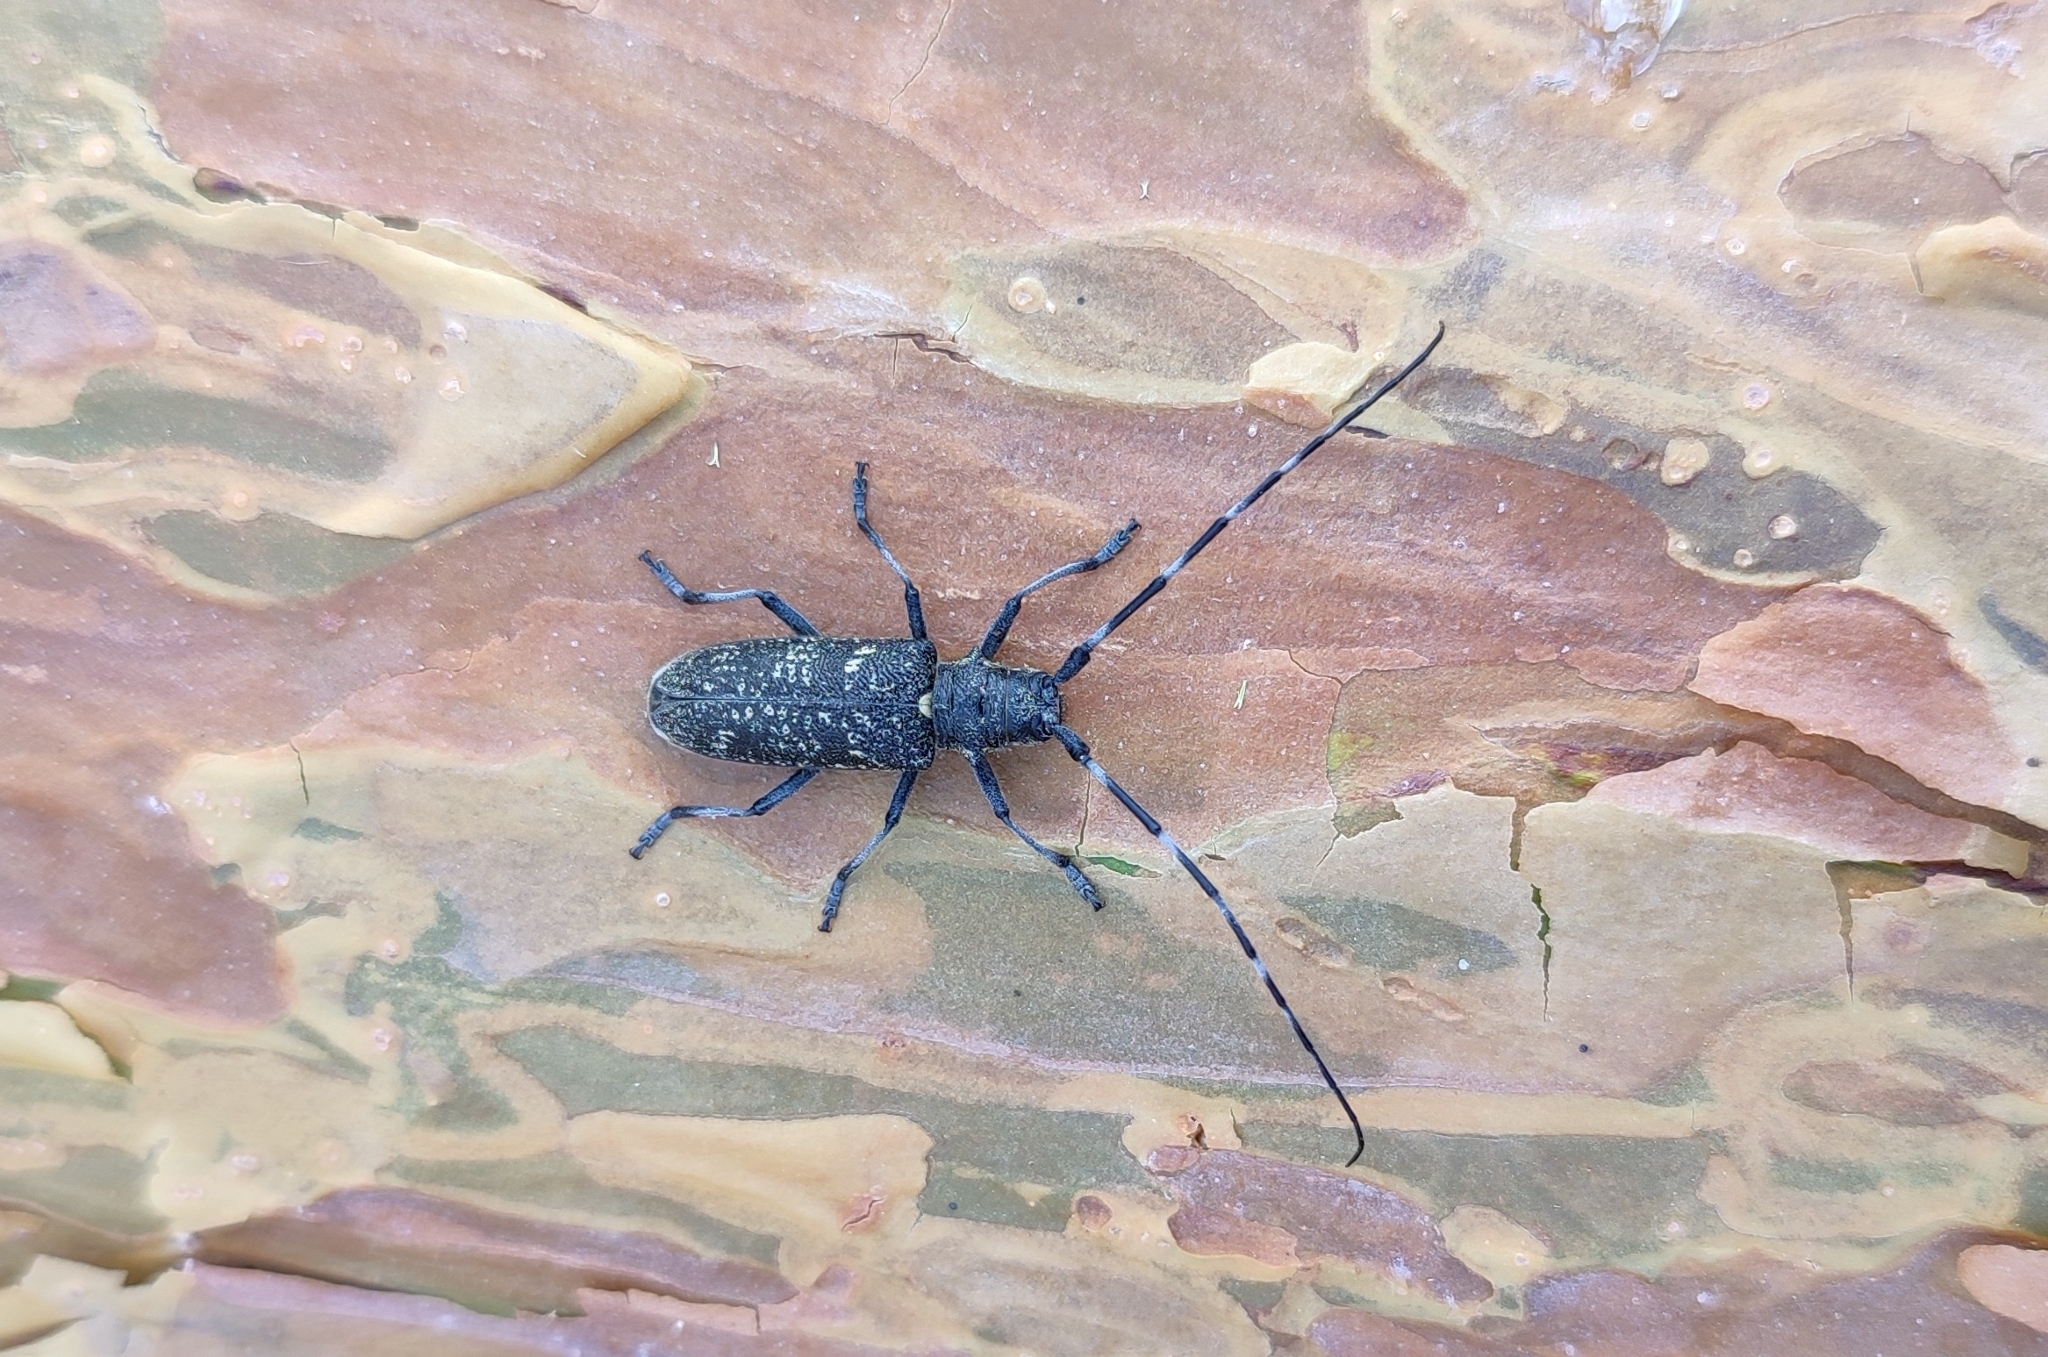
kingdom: Animalia
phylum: Arthropoda
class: Insecta
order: Coleoptera
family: Cerambycidae
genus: Monochamus
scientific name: Monochamus sutor
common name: Pine sawyer
